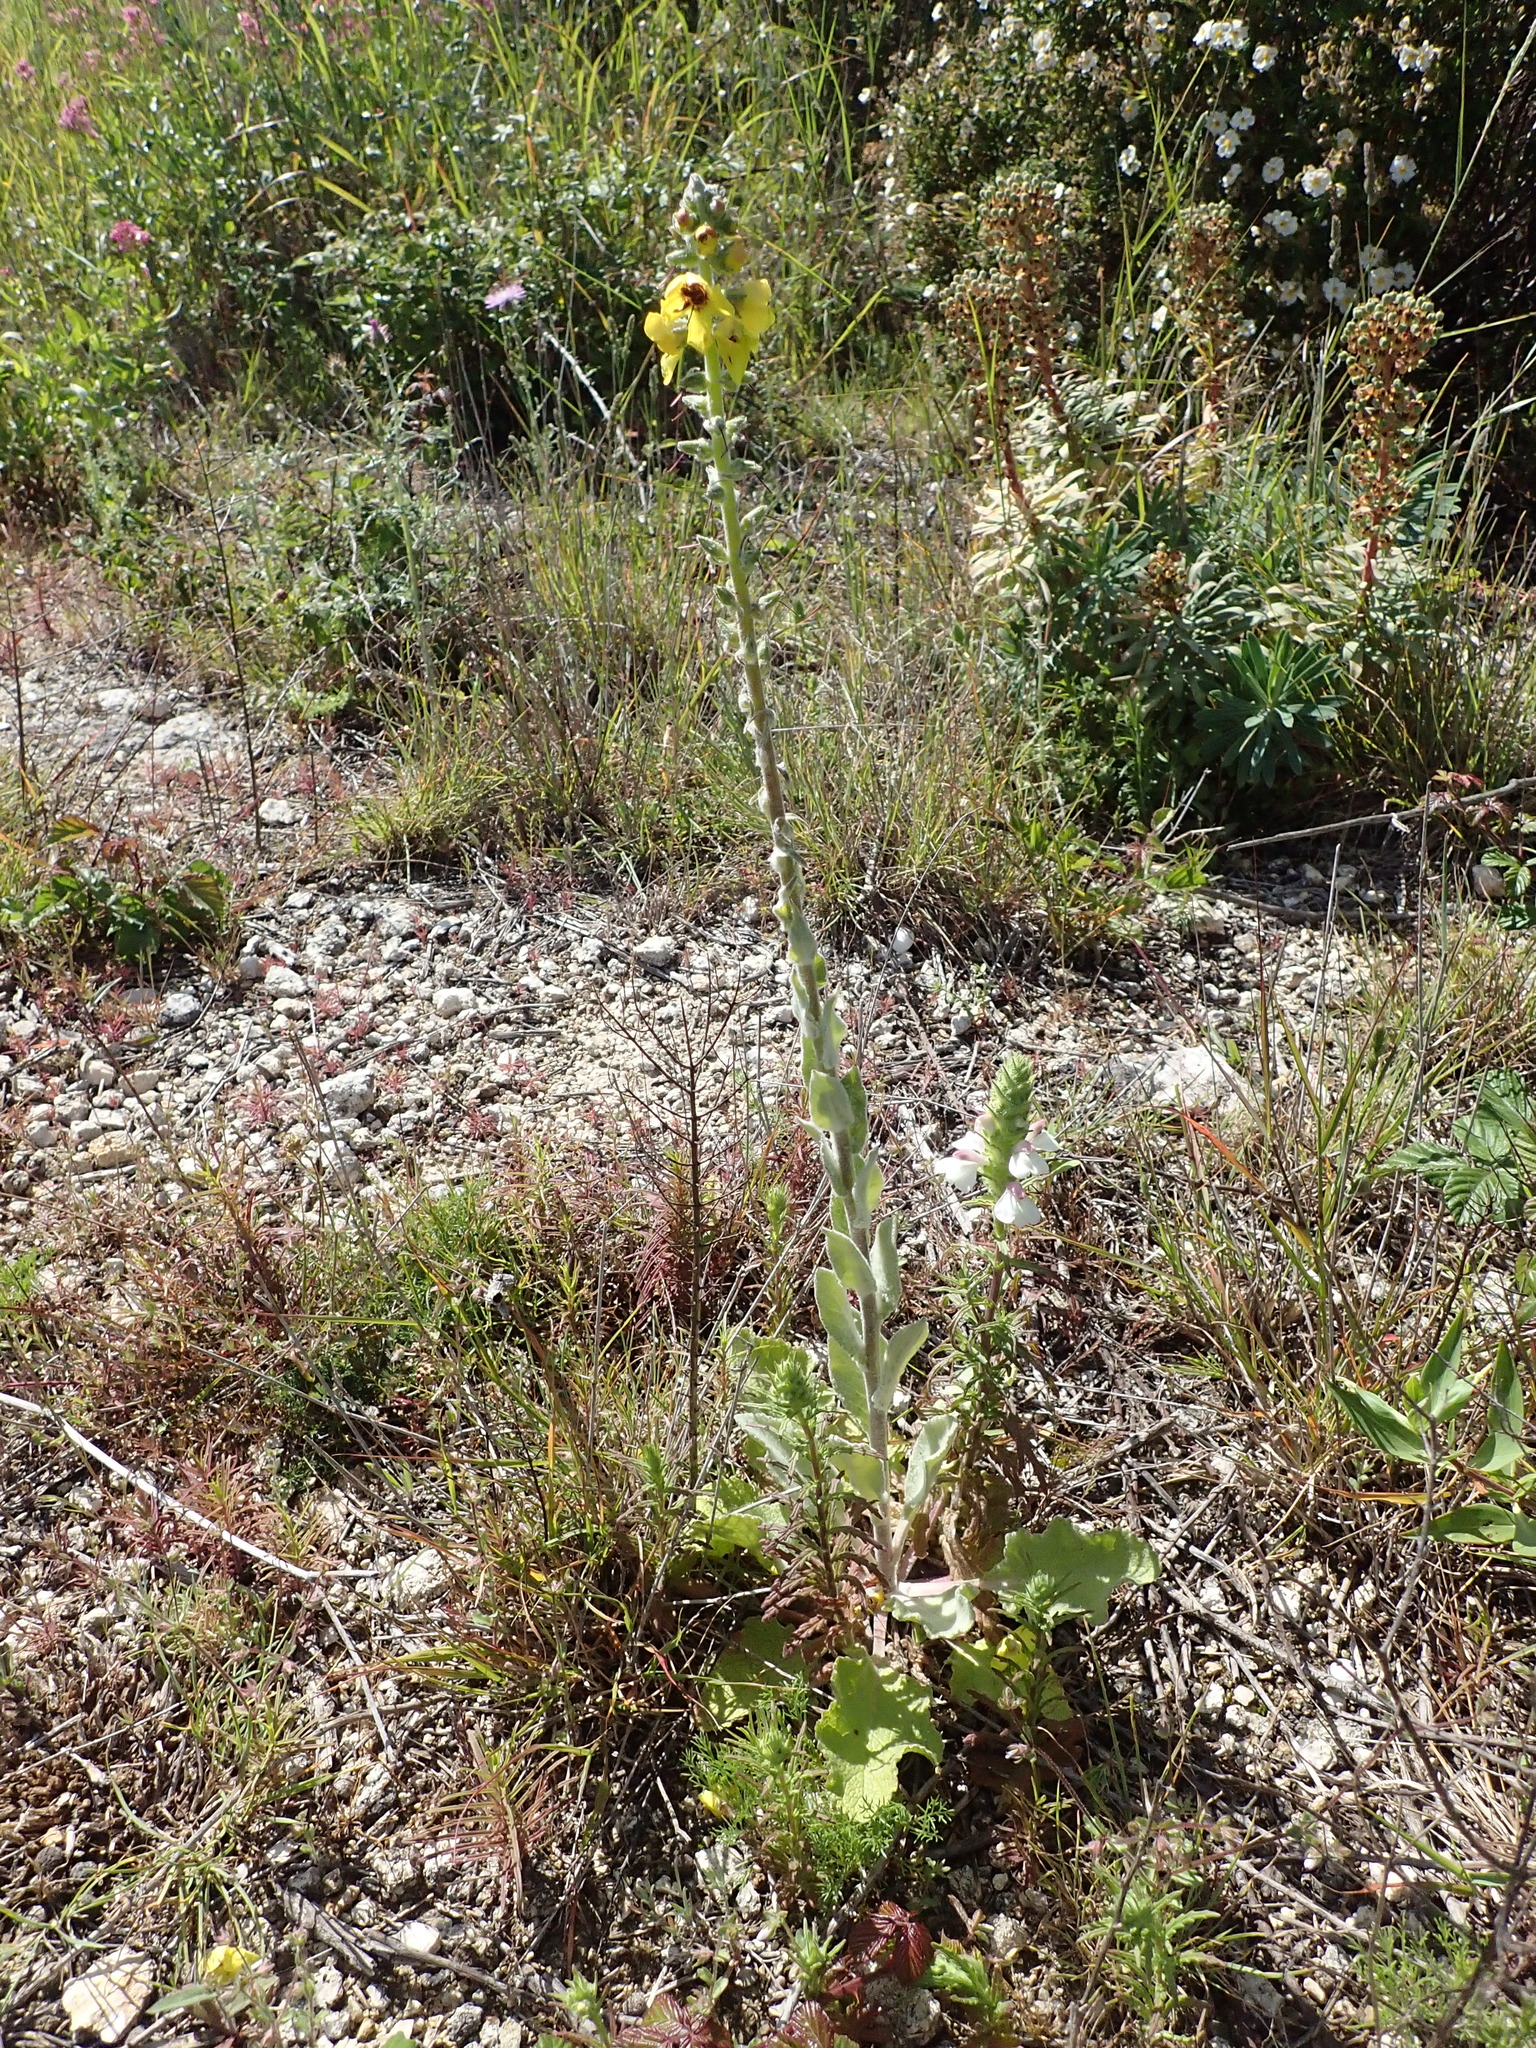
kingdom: Plantae
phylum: Tracheophyta
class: Magnoliopsida
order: Lamiales
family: Scrophulariaceae
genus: Verbascum
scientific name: Verbascum boerhavii
